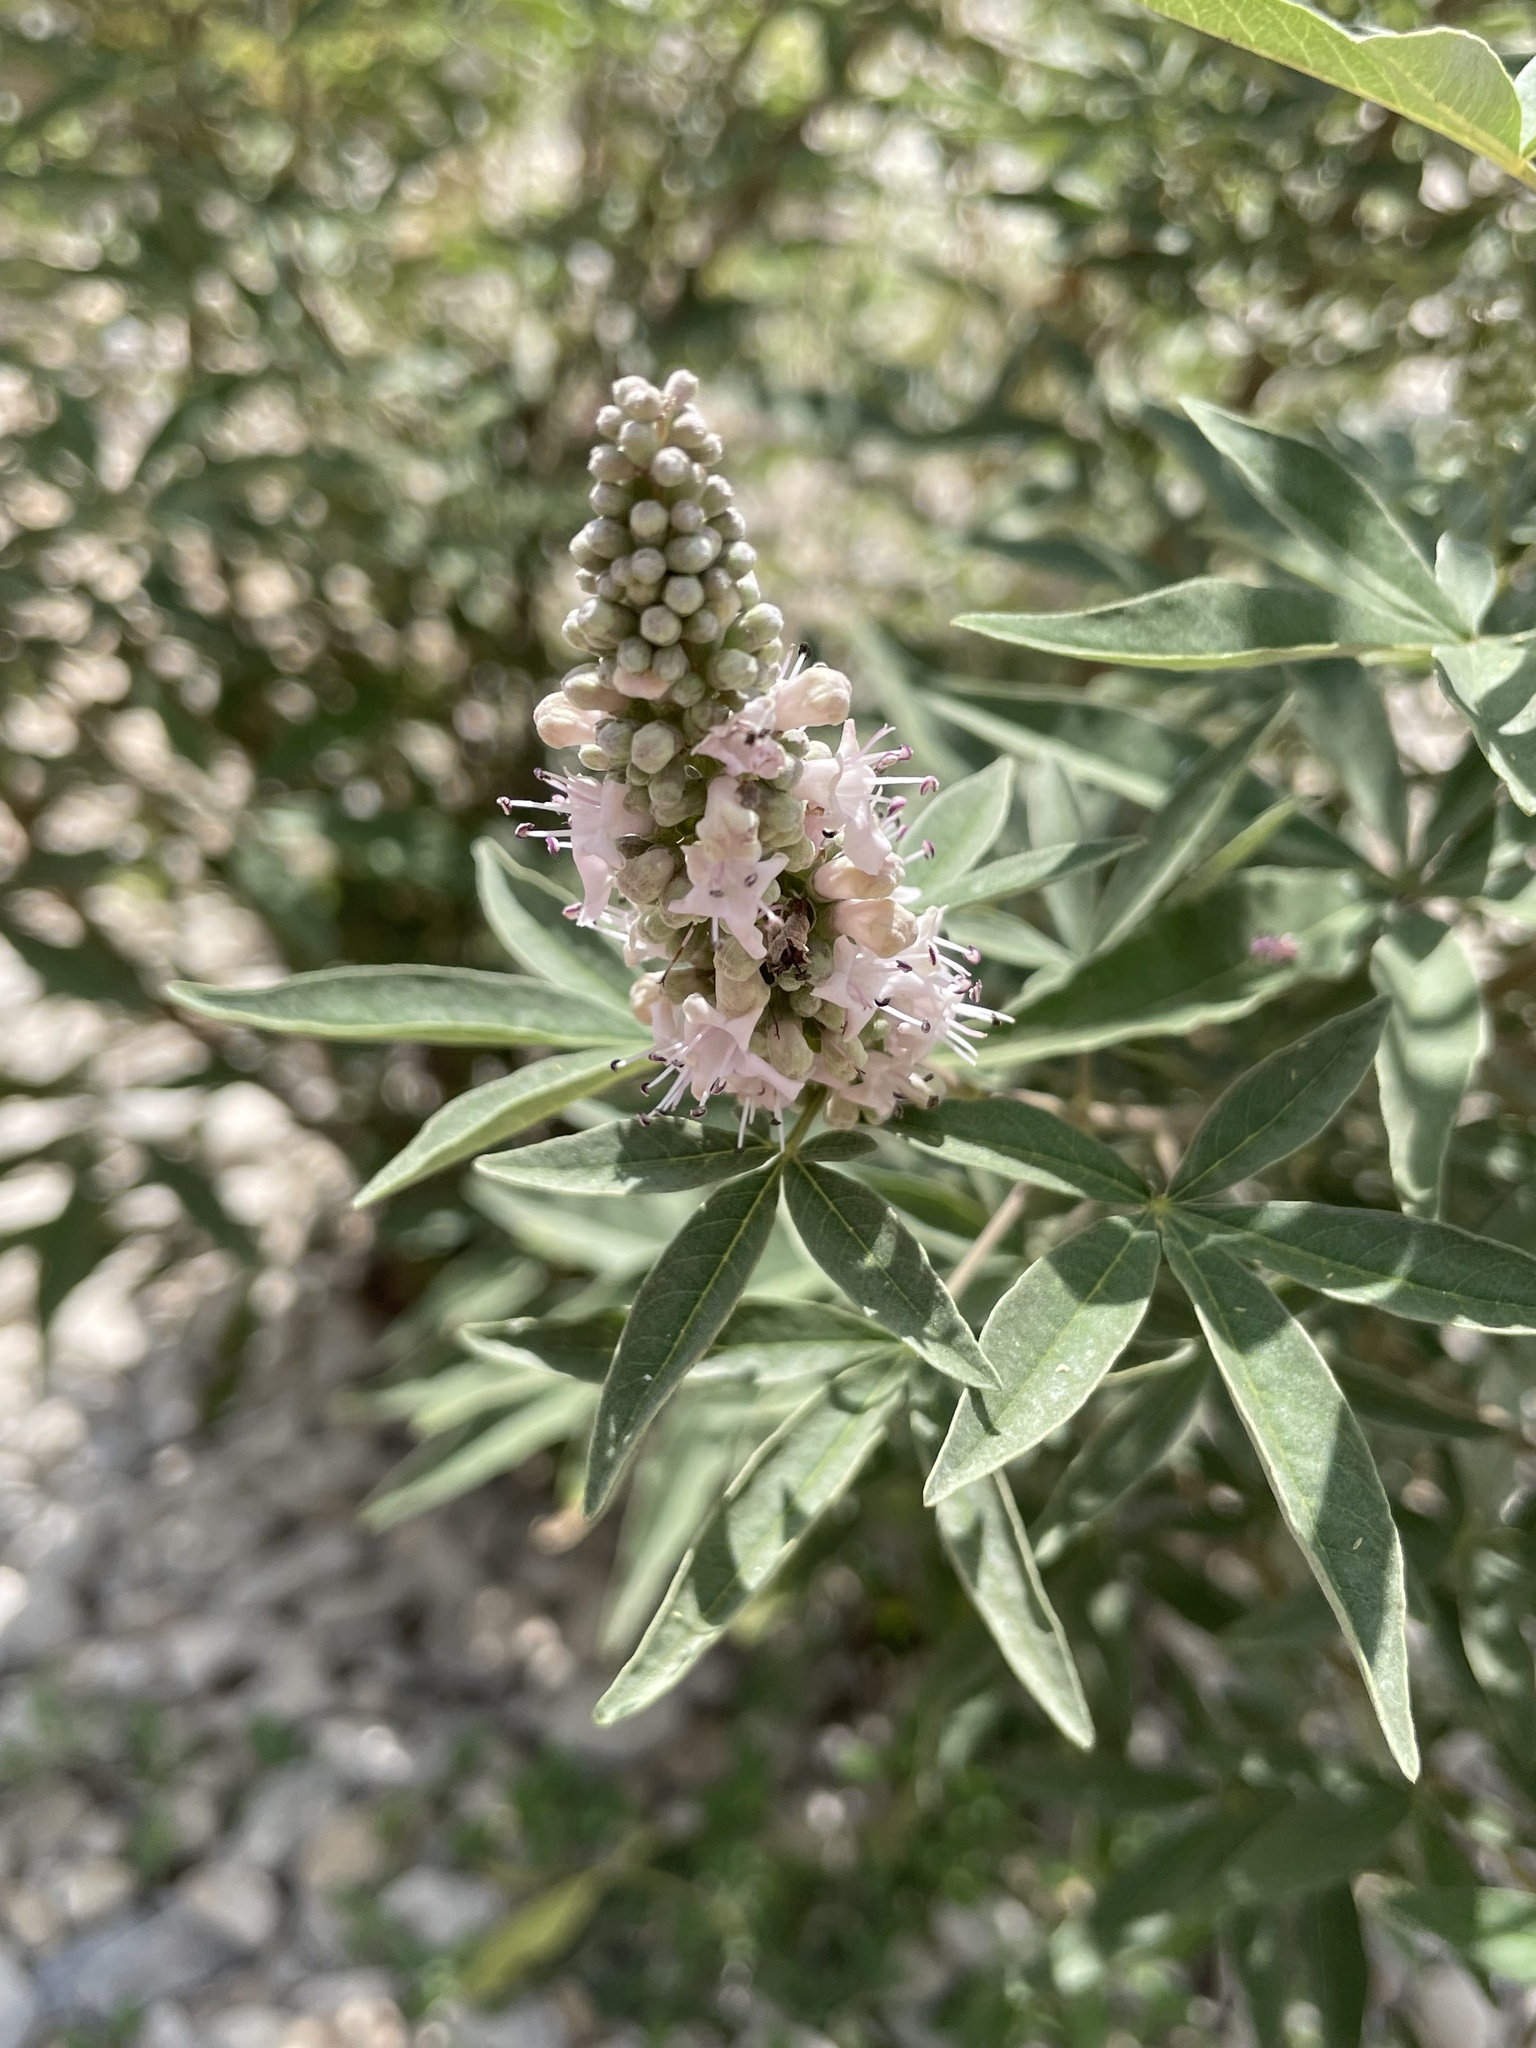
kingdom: Plantae
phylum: Tracheophyta
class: Magnoliopsida
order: Lamiales
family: Lamiaceae
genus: Vitex
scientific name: Vitex agnus-castus
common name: Chasteberry
